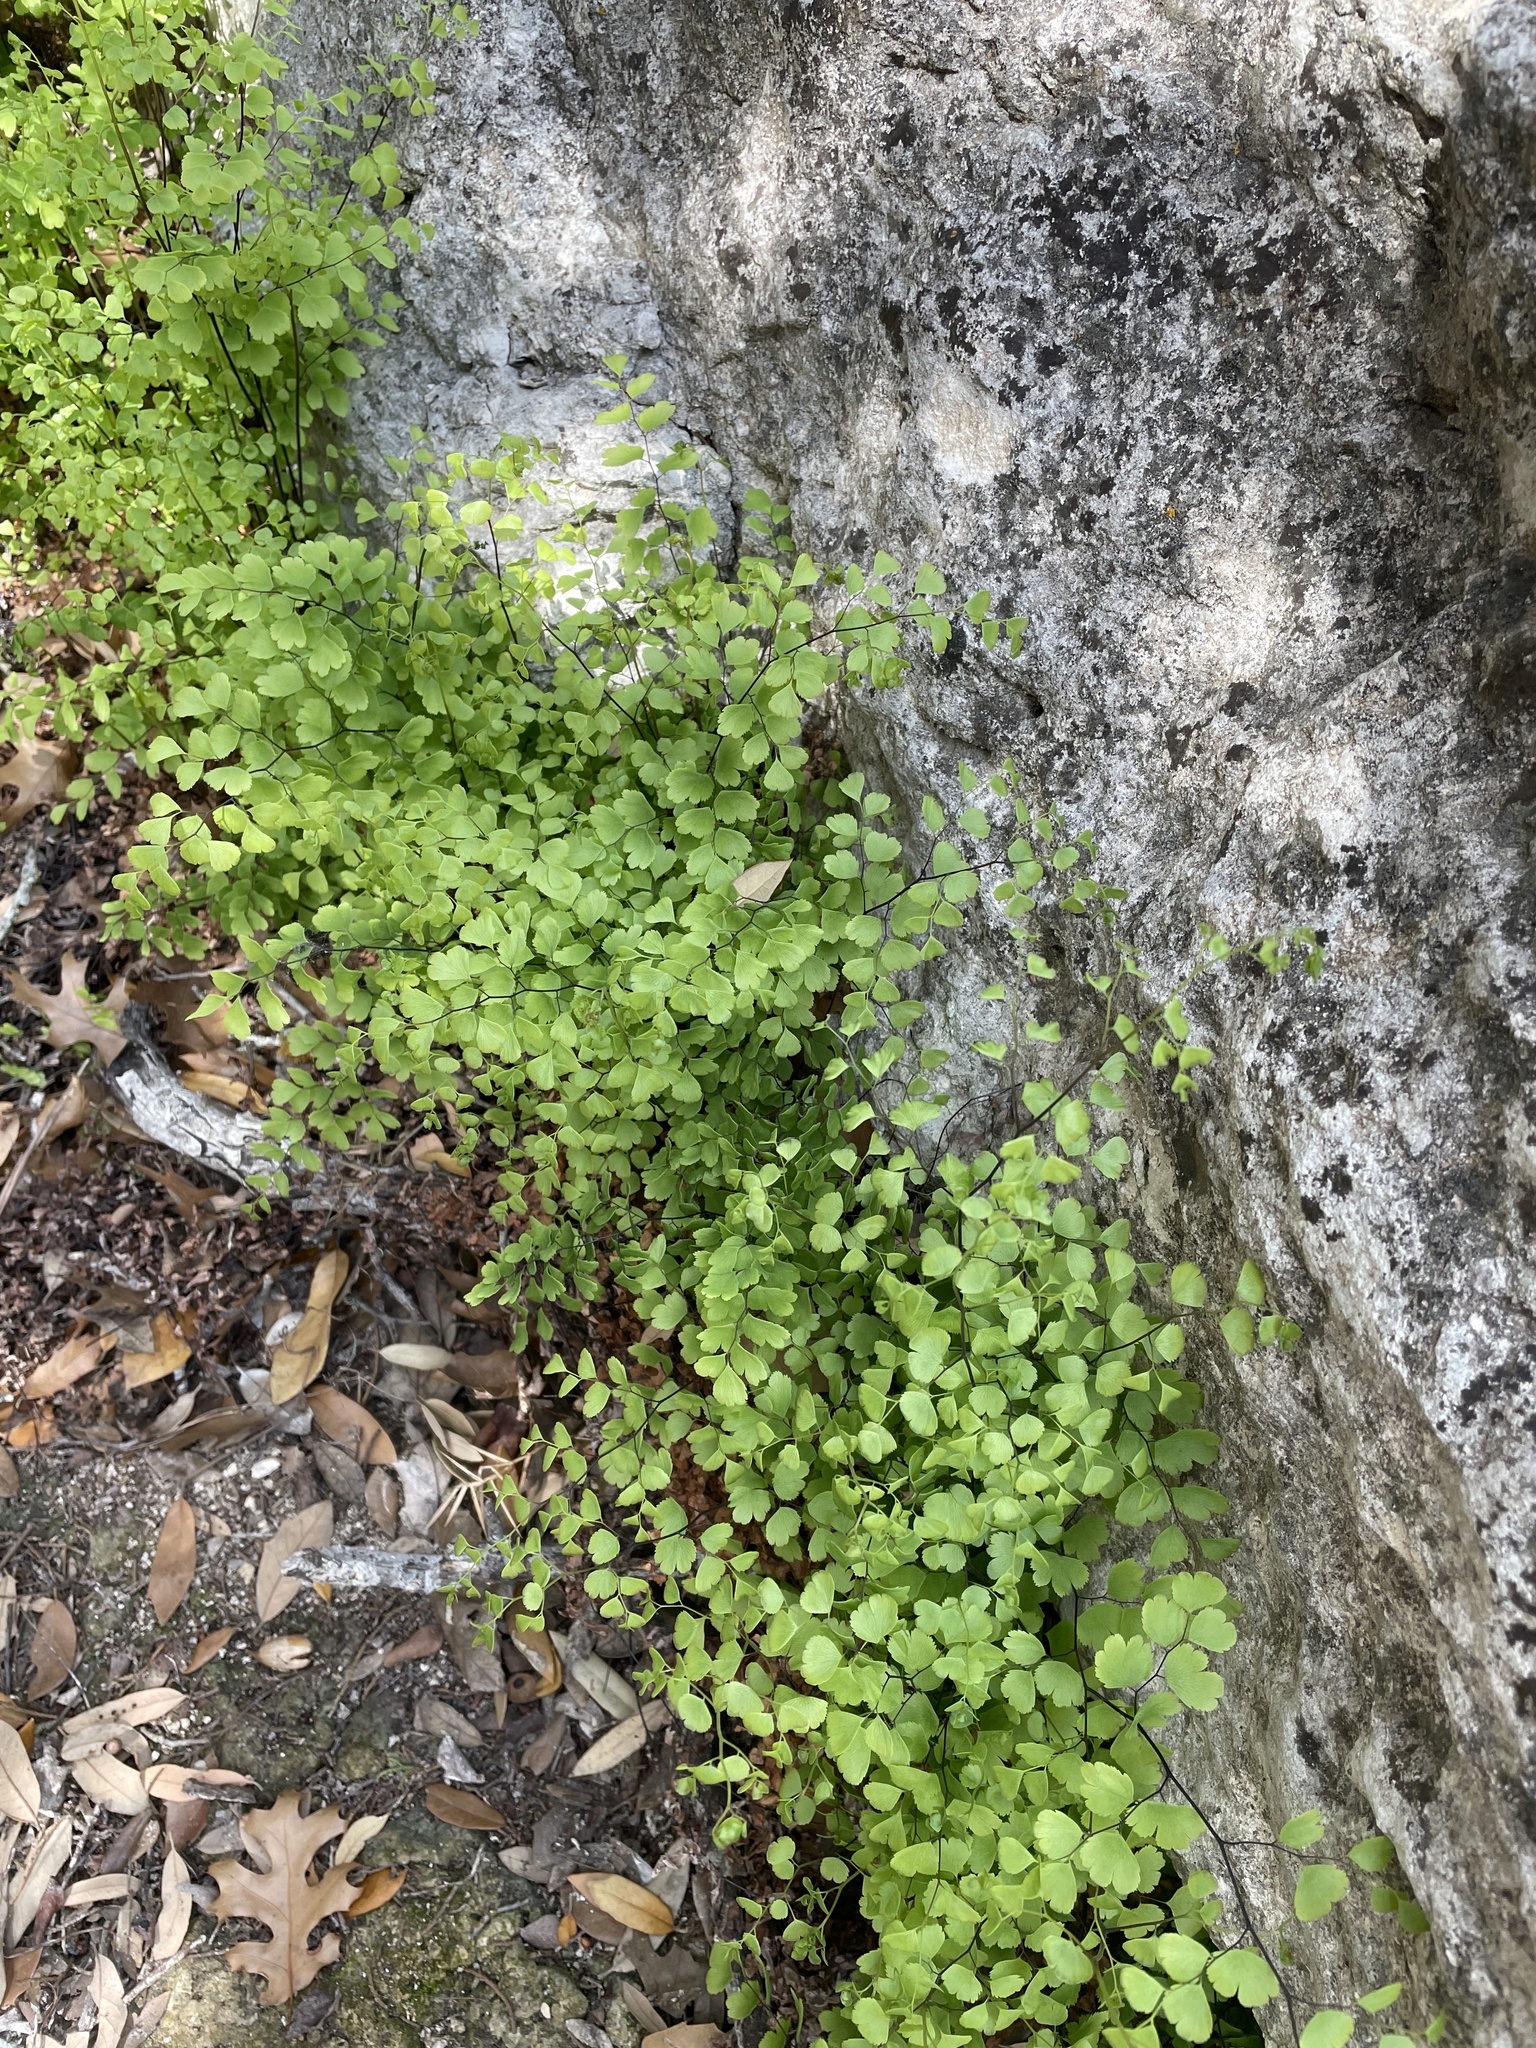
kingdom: Plantae
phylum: Tracheophyta
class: Polypodiopsida
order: Polypodiales
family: Pteridaceae
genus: Adiantum
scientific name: Adiantum capillus-veneris
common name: Maidenhair fern
